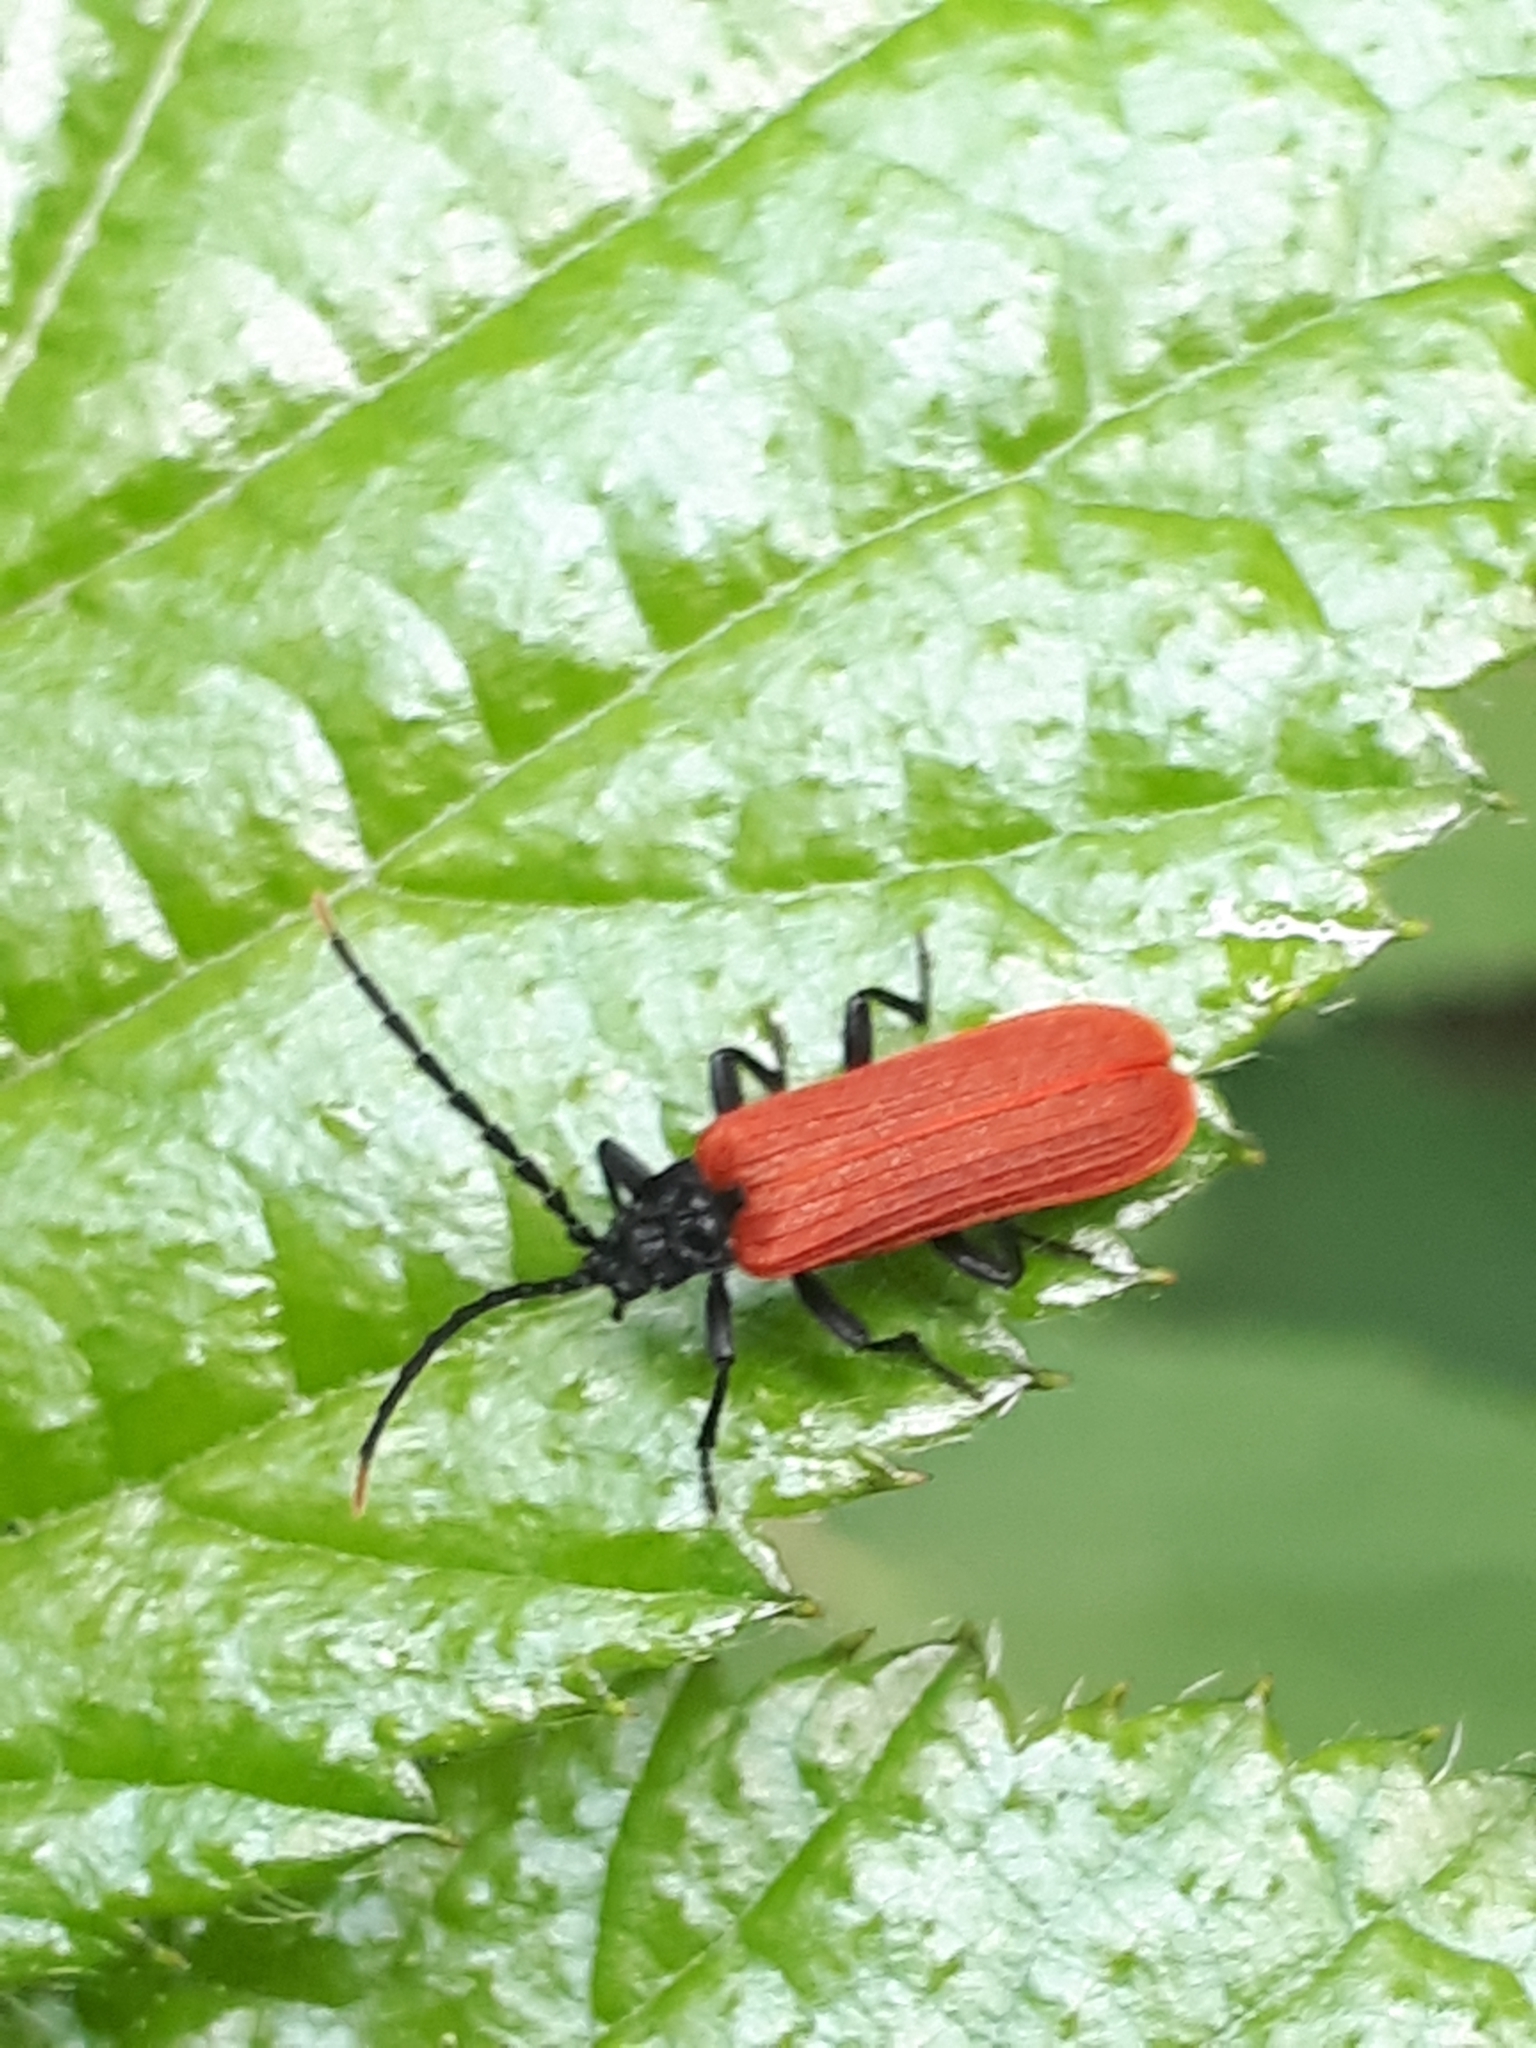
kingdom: Animalia
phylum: Arthropoda
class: Insecta
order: Coleoptera
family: Lycidae
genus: Platycis
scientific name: Platycis minutus
